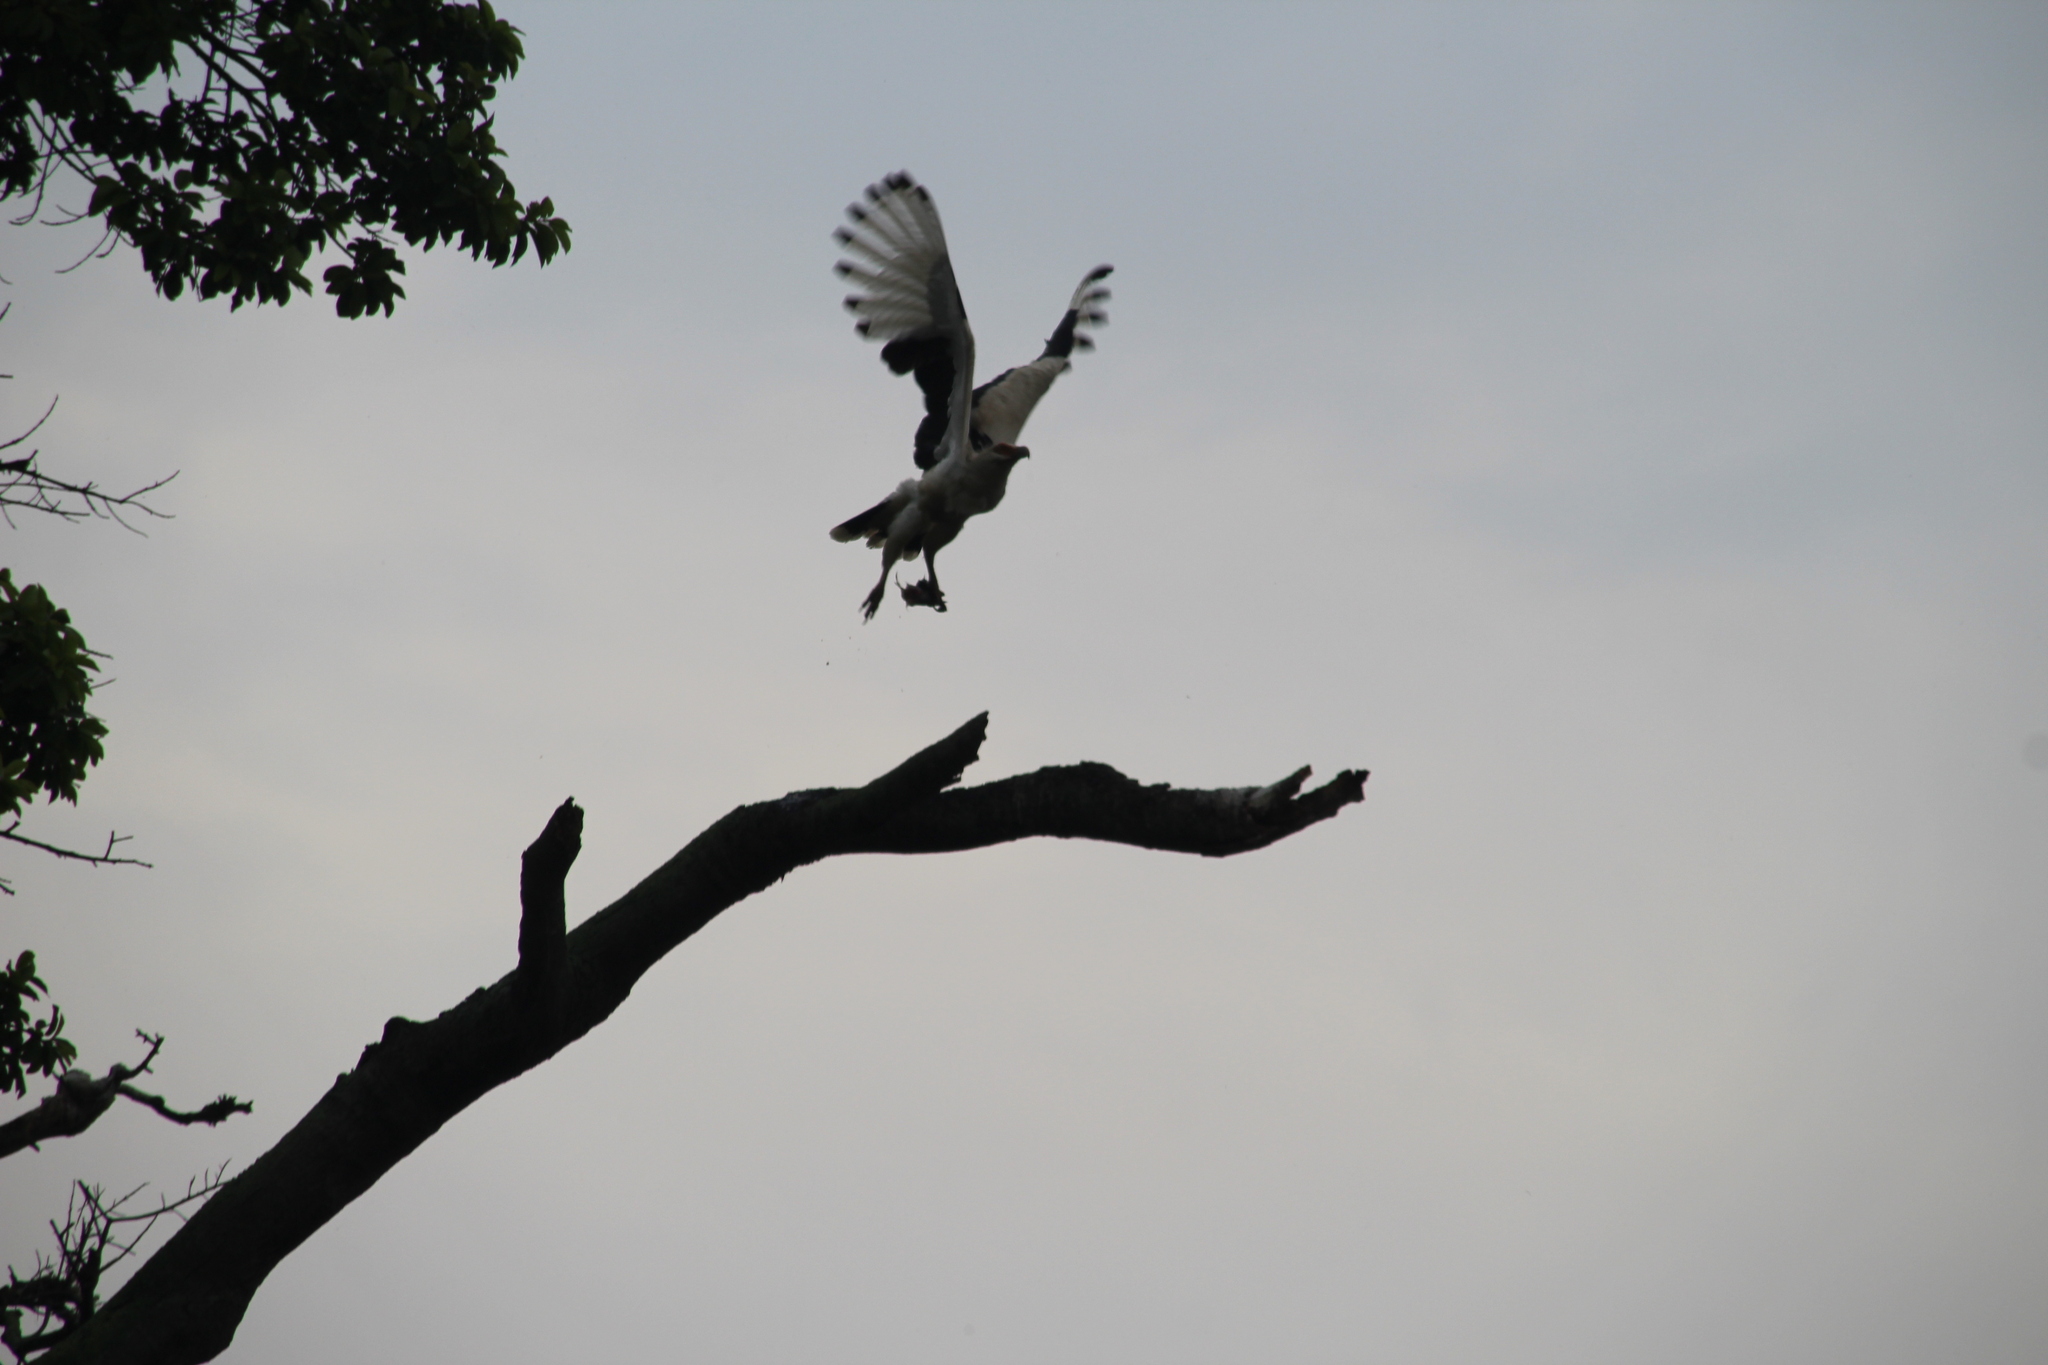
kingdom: Animalia
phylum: Chordata
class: Aves
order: Accipitriformes
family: Accipitridae
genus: Gypohierax
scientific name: Gypohierax angolensis
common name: Palm-nut vulture
